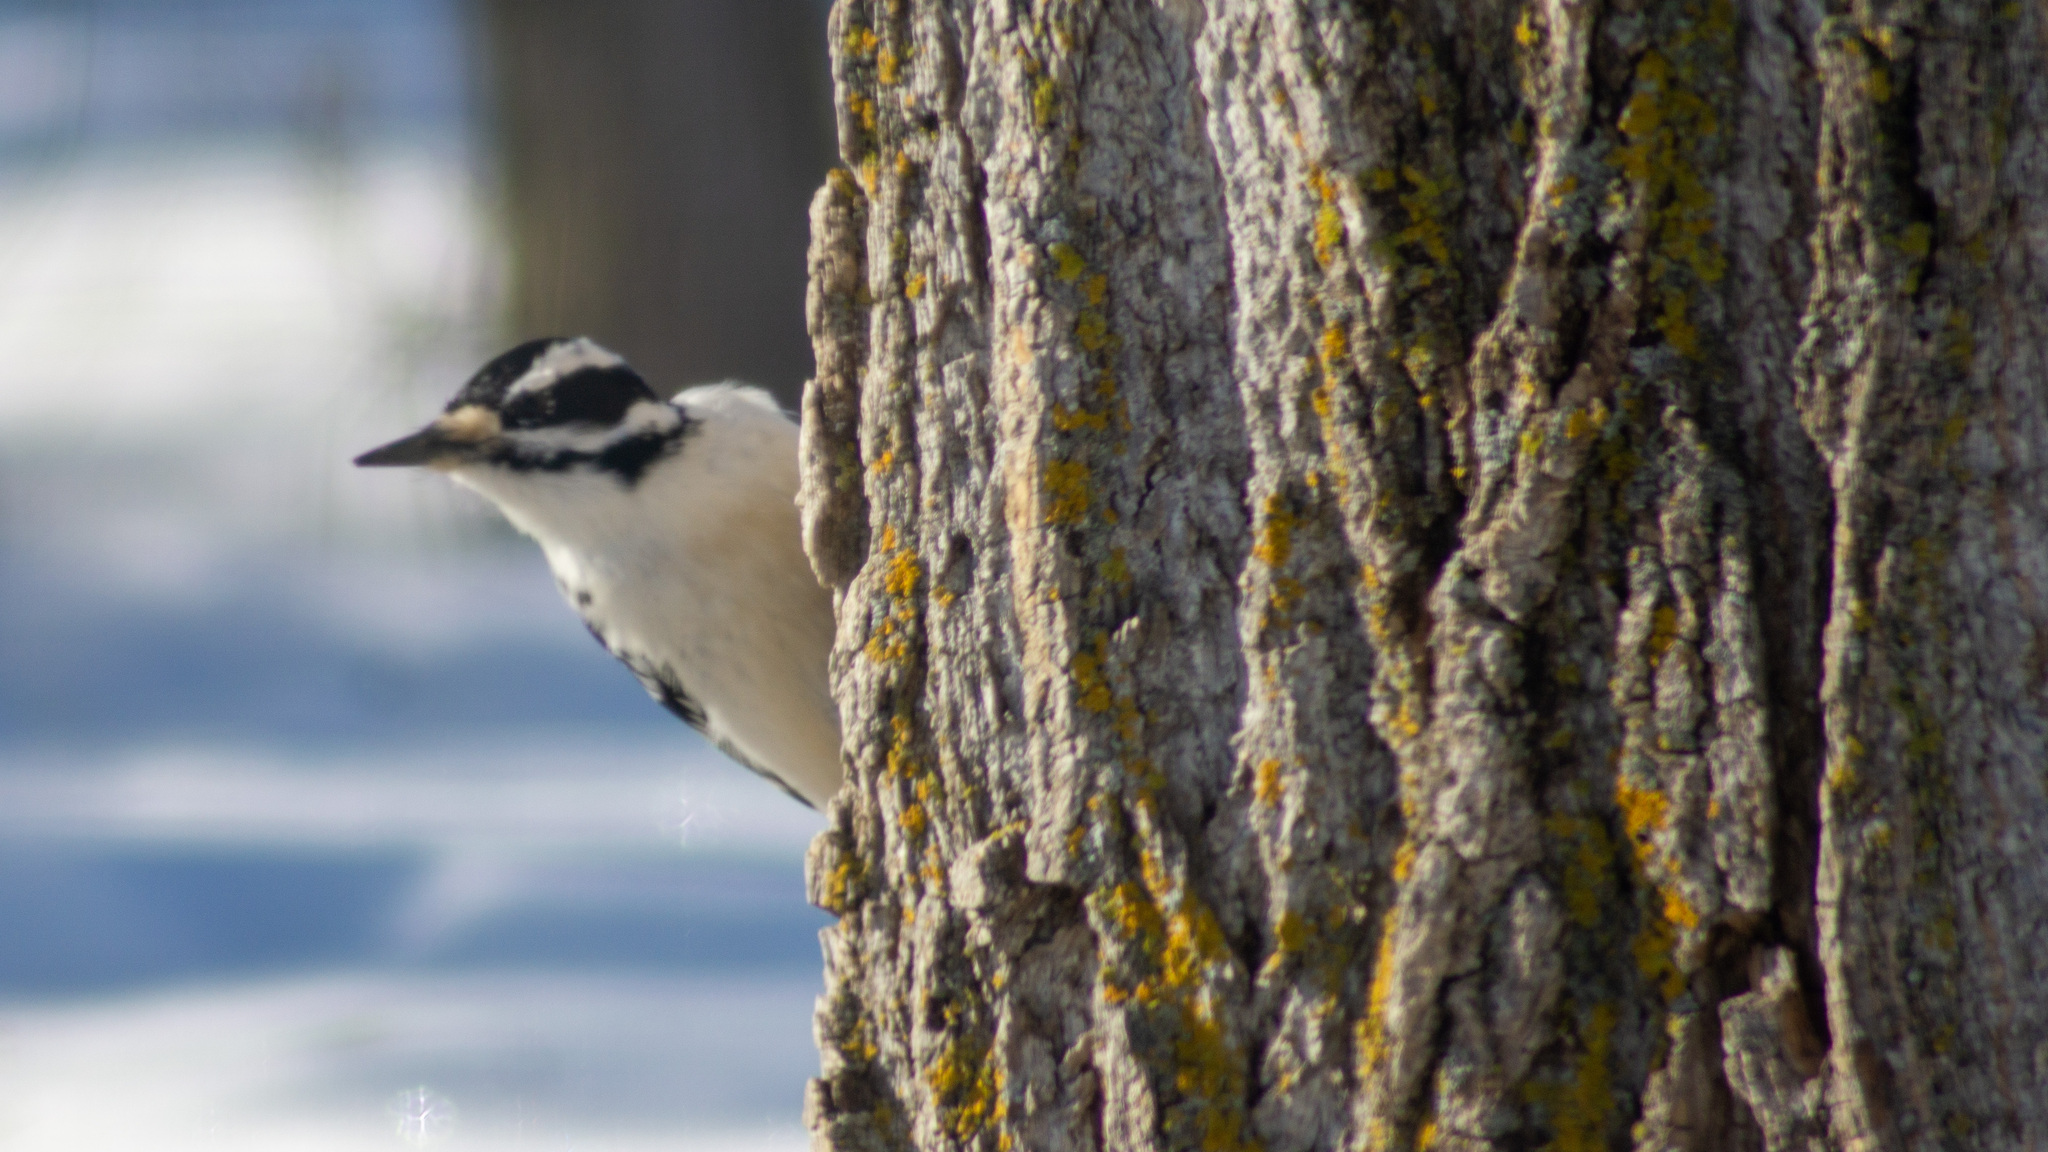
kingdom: Animalia
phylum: Chordata
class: Aves
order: Piciformes
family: Picidae
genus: Leuconotopicus
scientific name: Leuconotopicus villosus
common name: Hairy woodpecker
